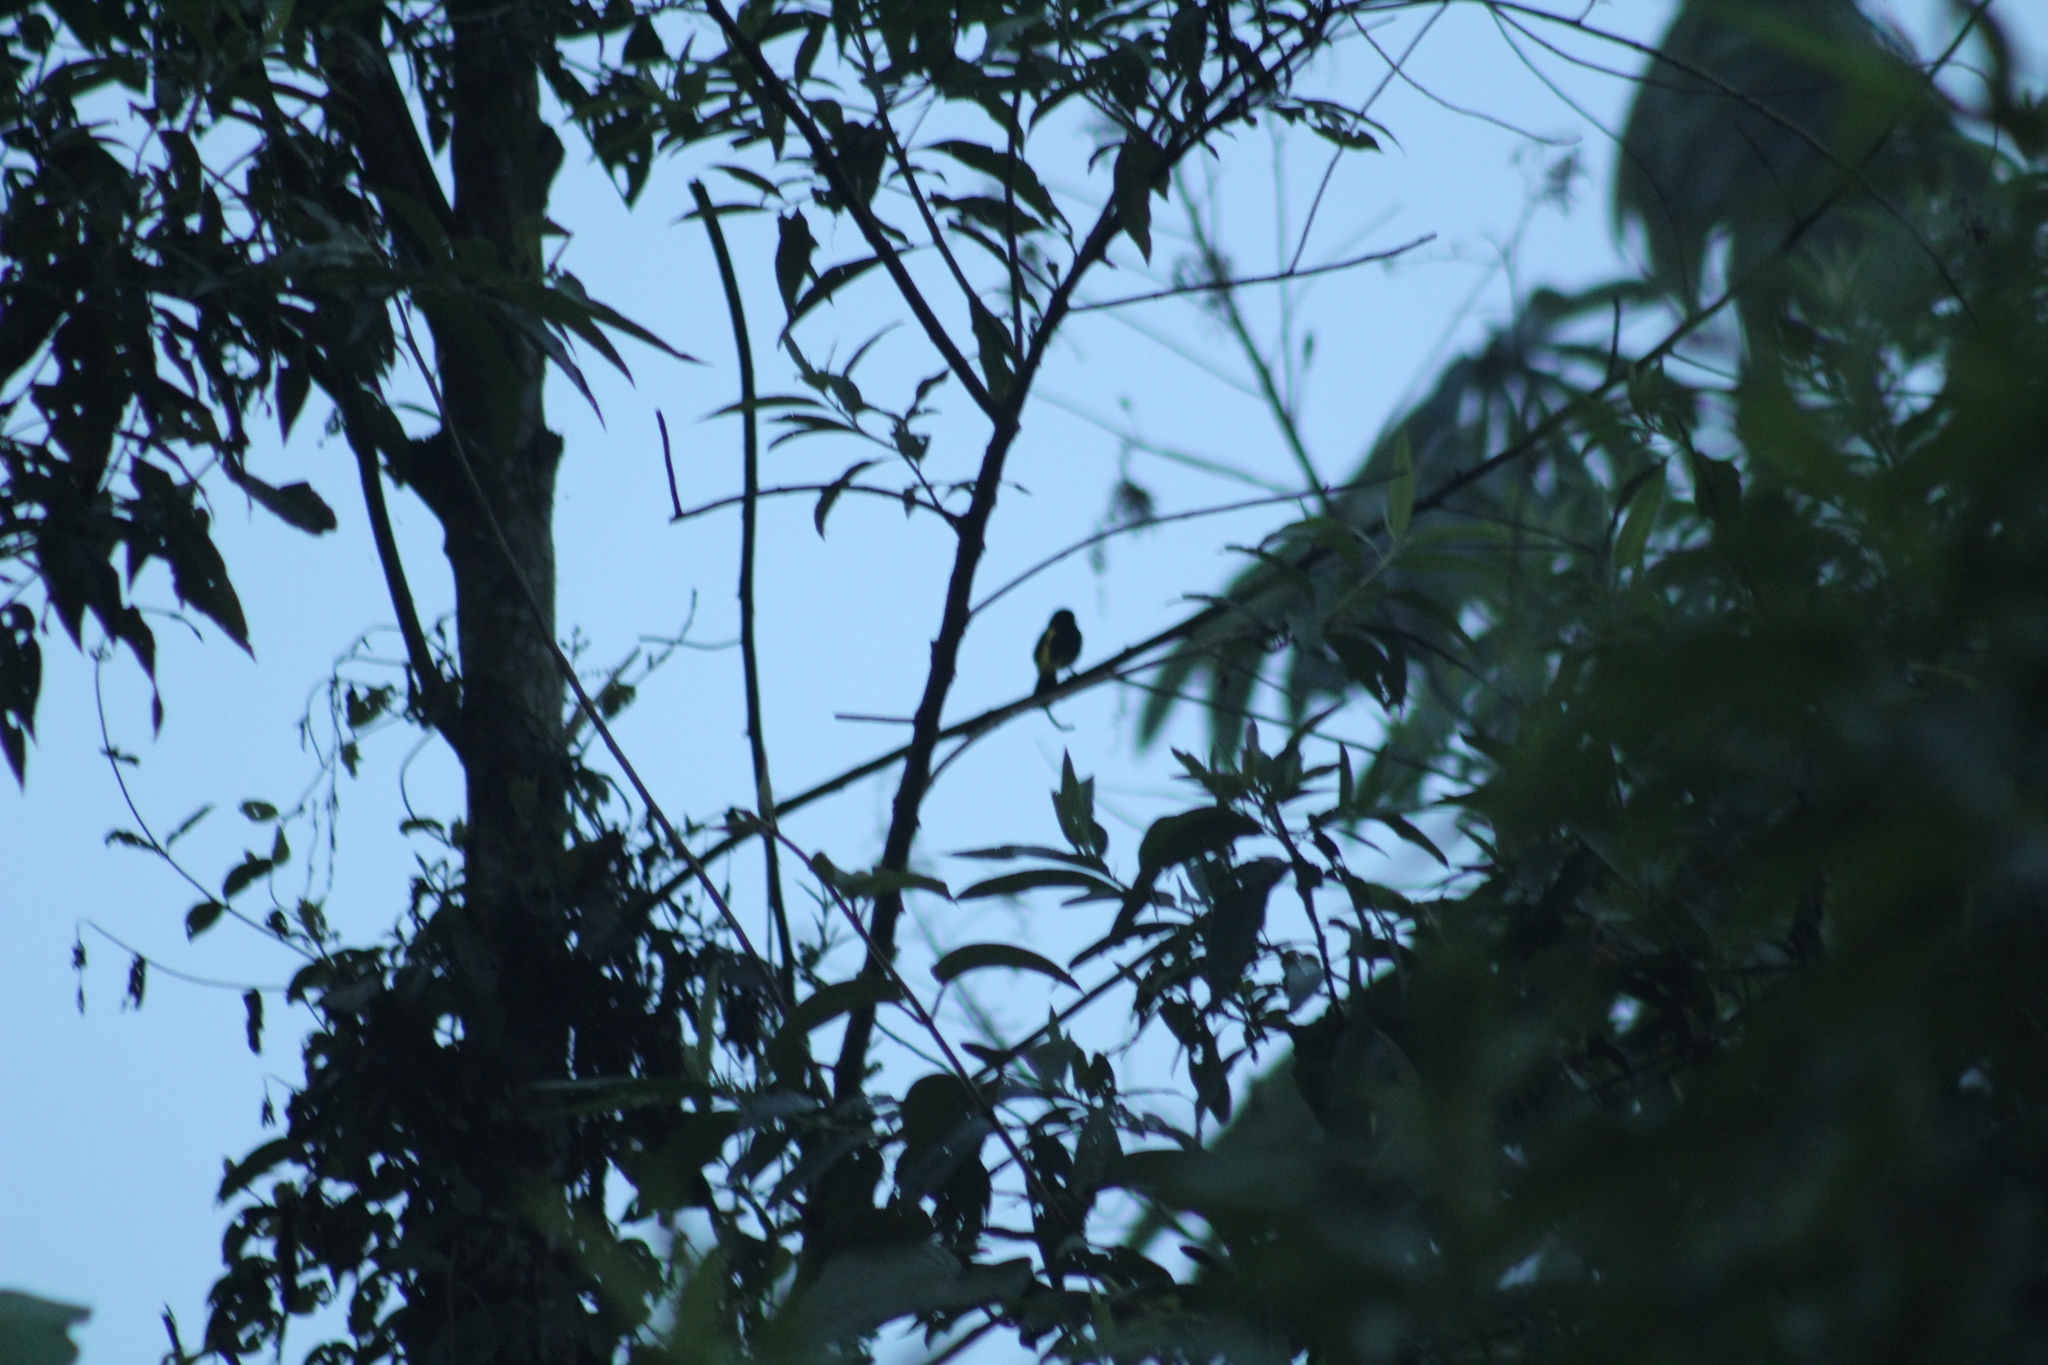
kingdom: Animalia
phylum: Chordata
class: Aves
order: Passeriformes
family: Thraupidae
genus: Ramphocelus
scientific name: Ramphocelus icteronotus
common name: Lemon-rumped tanager
